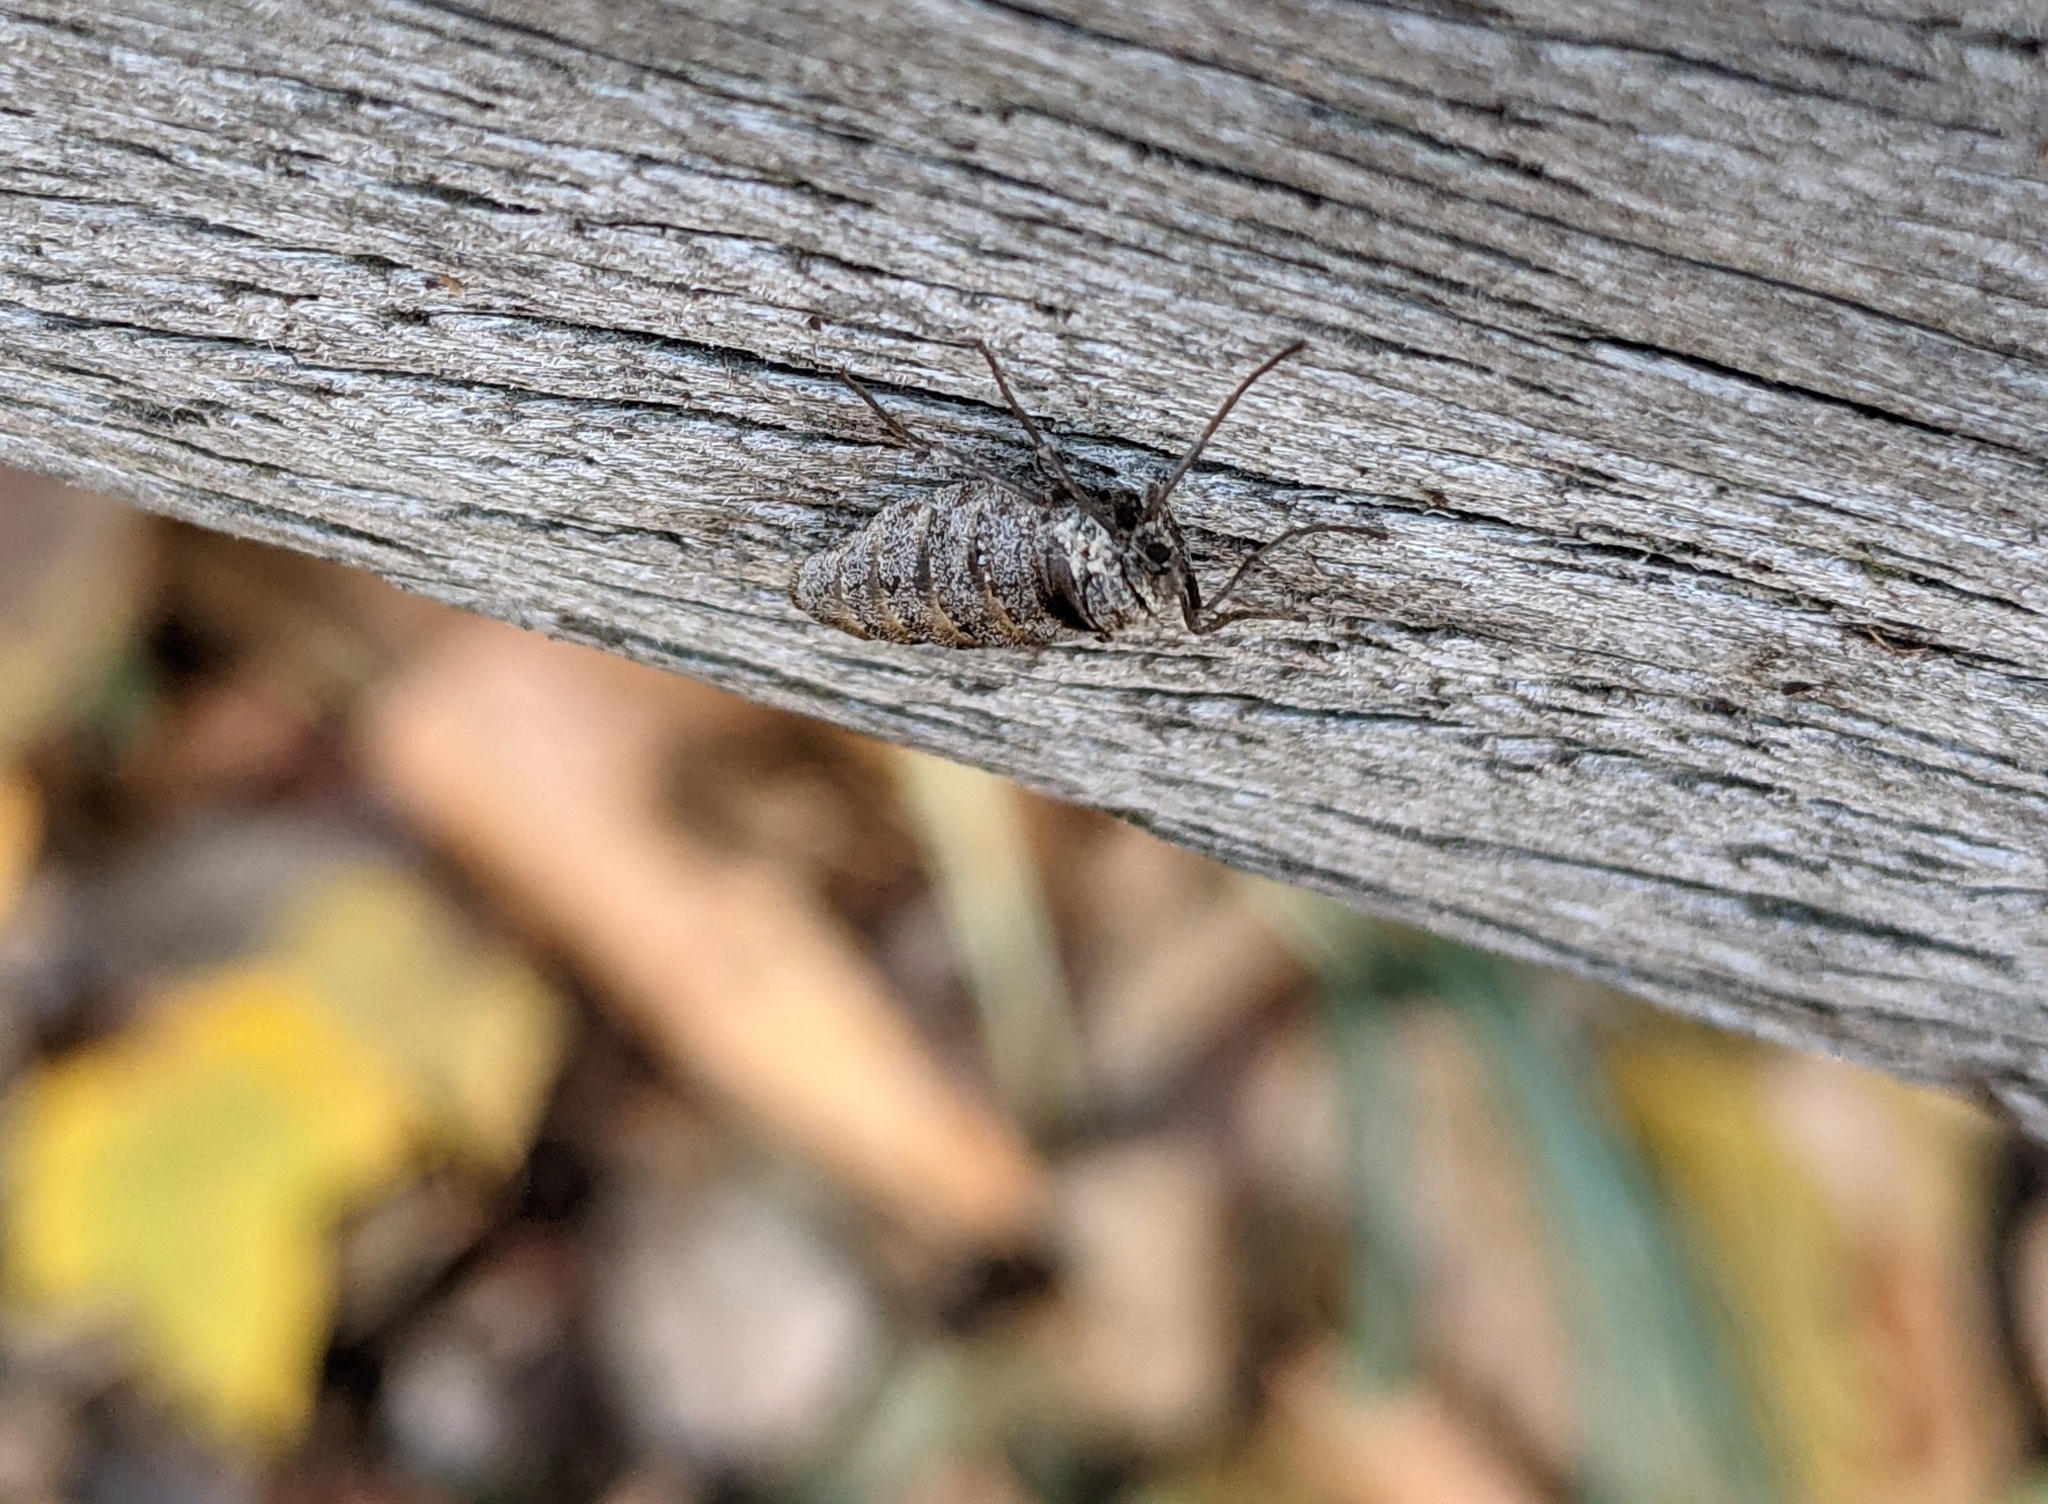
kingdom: Animalia
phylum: Arthropoda
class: Insecta
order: Lepidoptera
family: Geometridae
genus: Alsophila
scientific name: Alsophila pometaria
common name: Fall cankerworm
